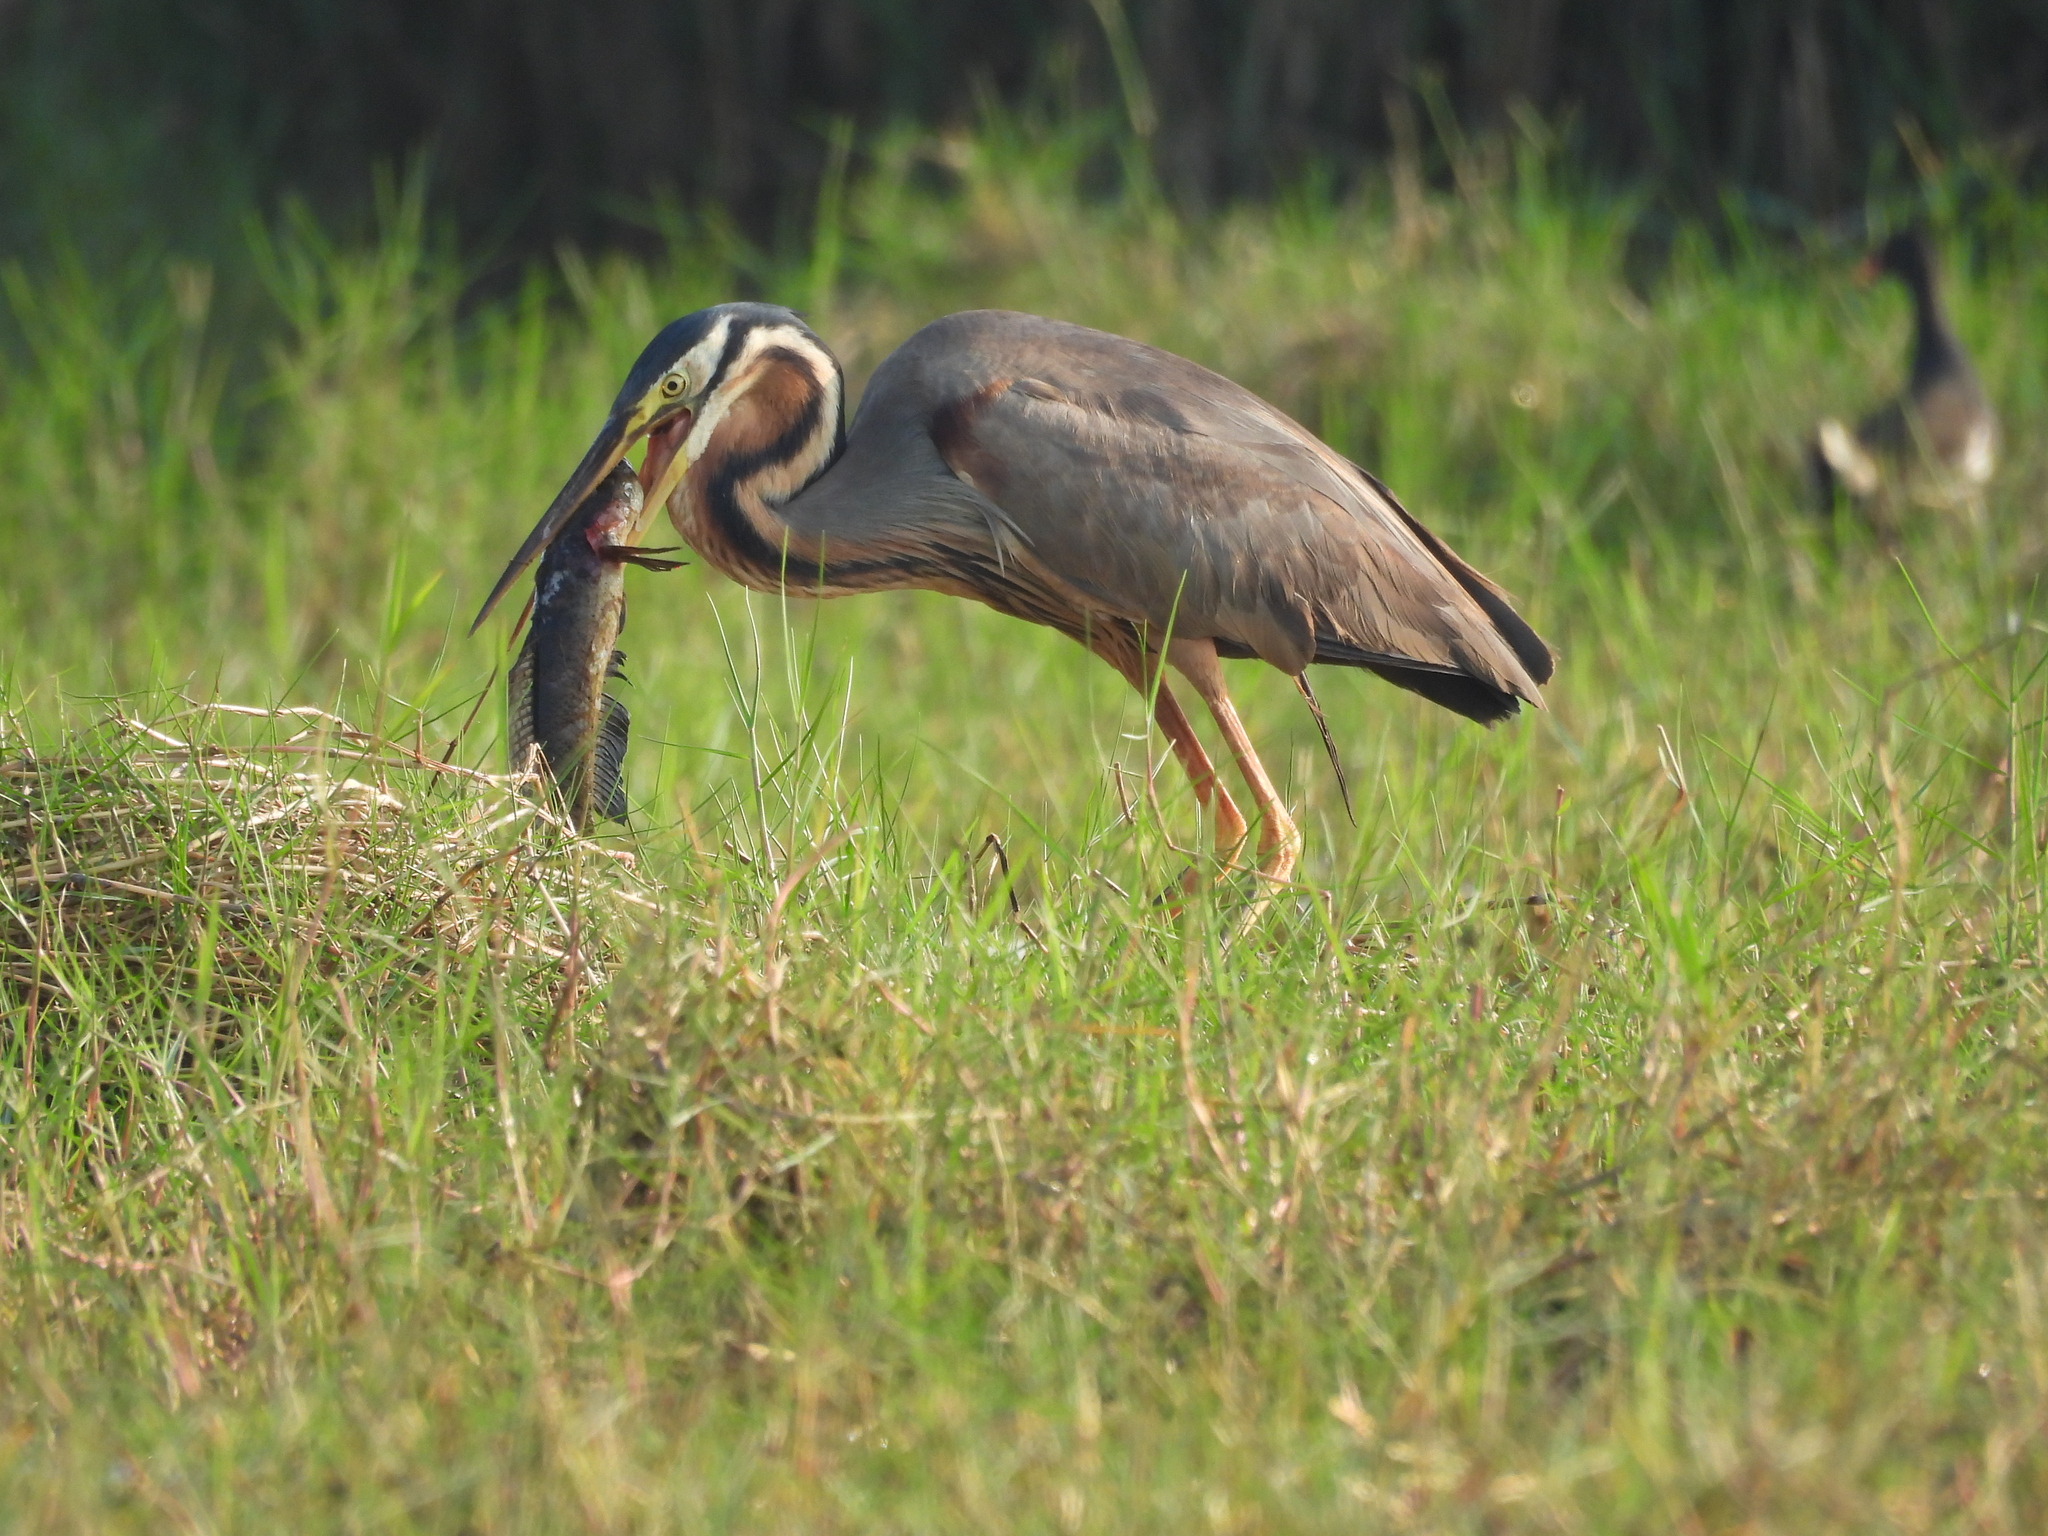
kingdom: Animalia
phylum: Chordata
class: Aves
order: Pelecaniformes
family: Ardeidae
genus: Ardea
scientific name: Ardea purpurea
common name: Purple heron
